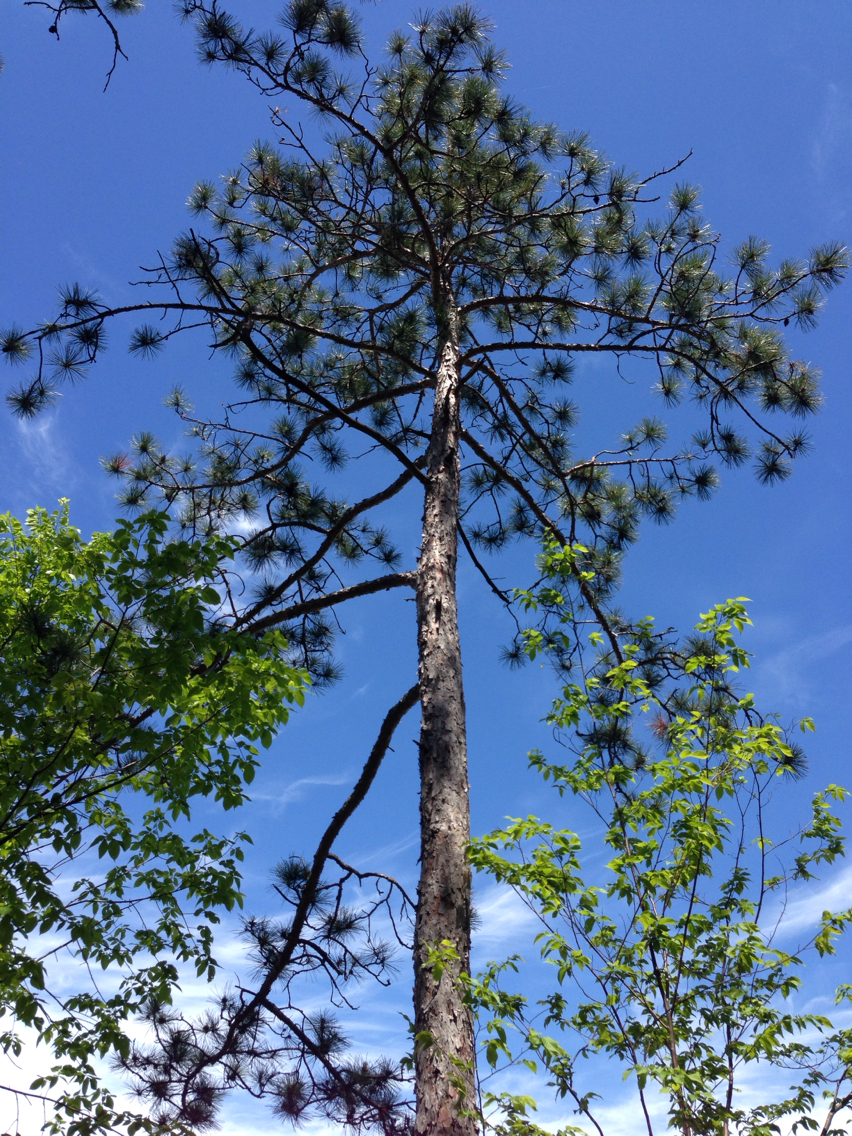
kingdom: Plantae
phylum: Tracheophyta
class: Pinopsida
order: Pinales
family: Pinaceae
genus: Pinus
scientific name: Pinus resinosa
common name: Norway pine
